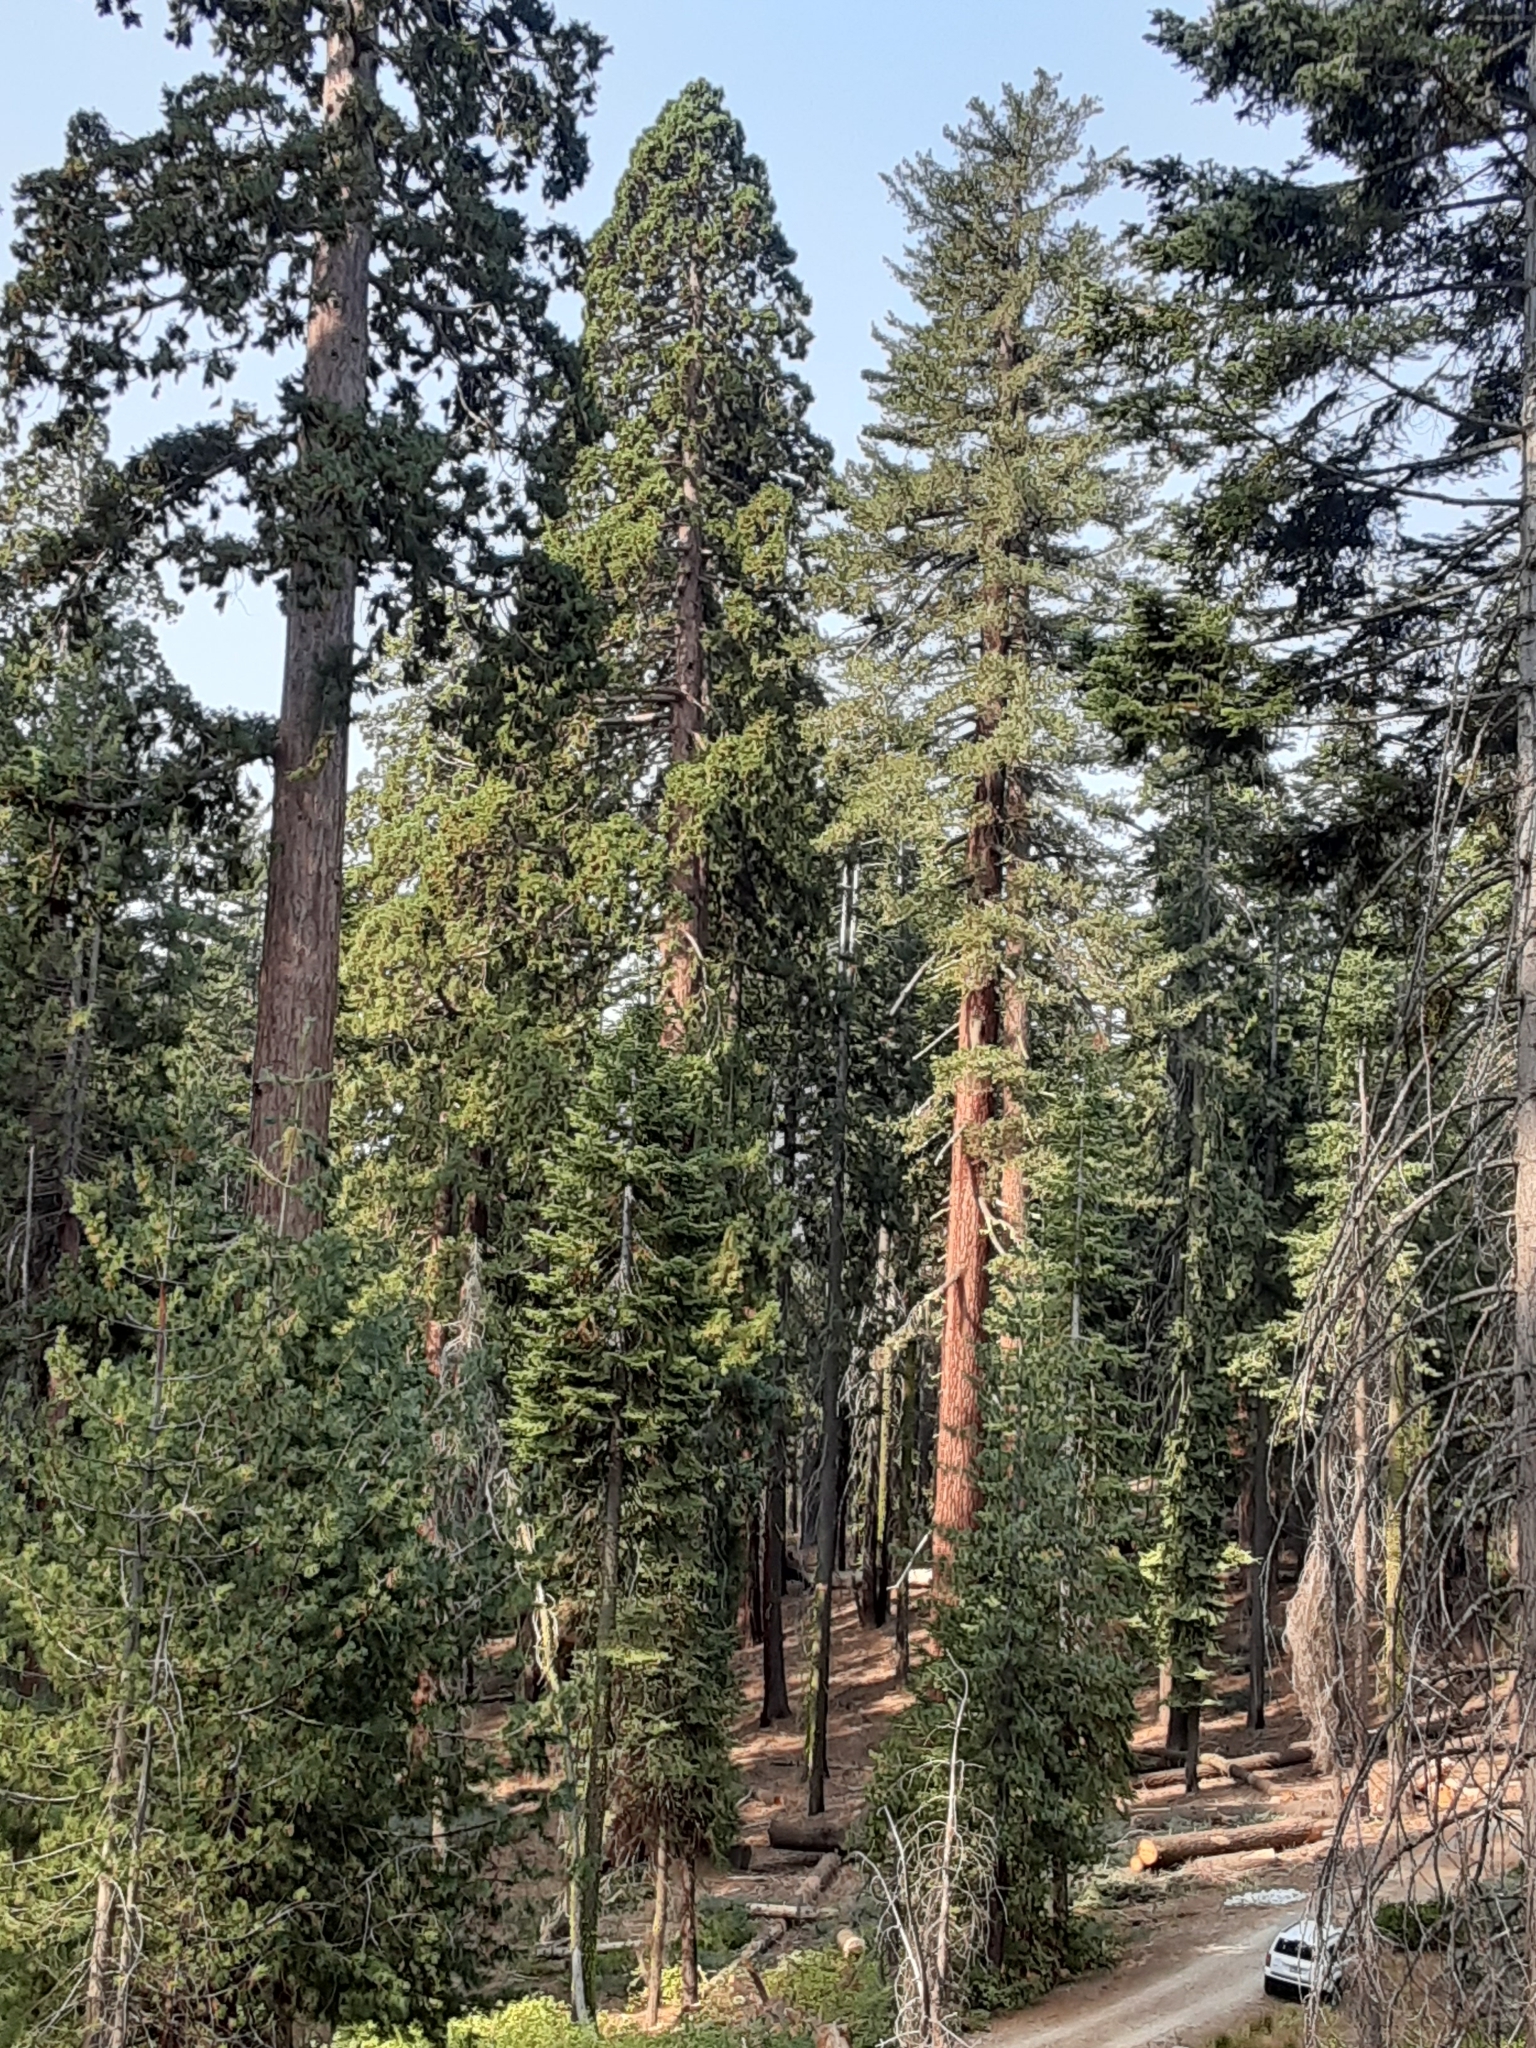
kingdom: Plantae
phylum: Tracheophyta
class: Pinopsida
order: Pinales
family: Cupressaceae
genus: Sequoiadendron
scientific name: Sequoiadendron giganteum
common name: Wellingtonia
